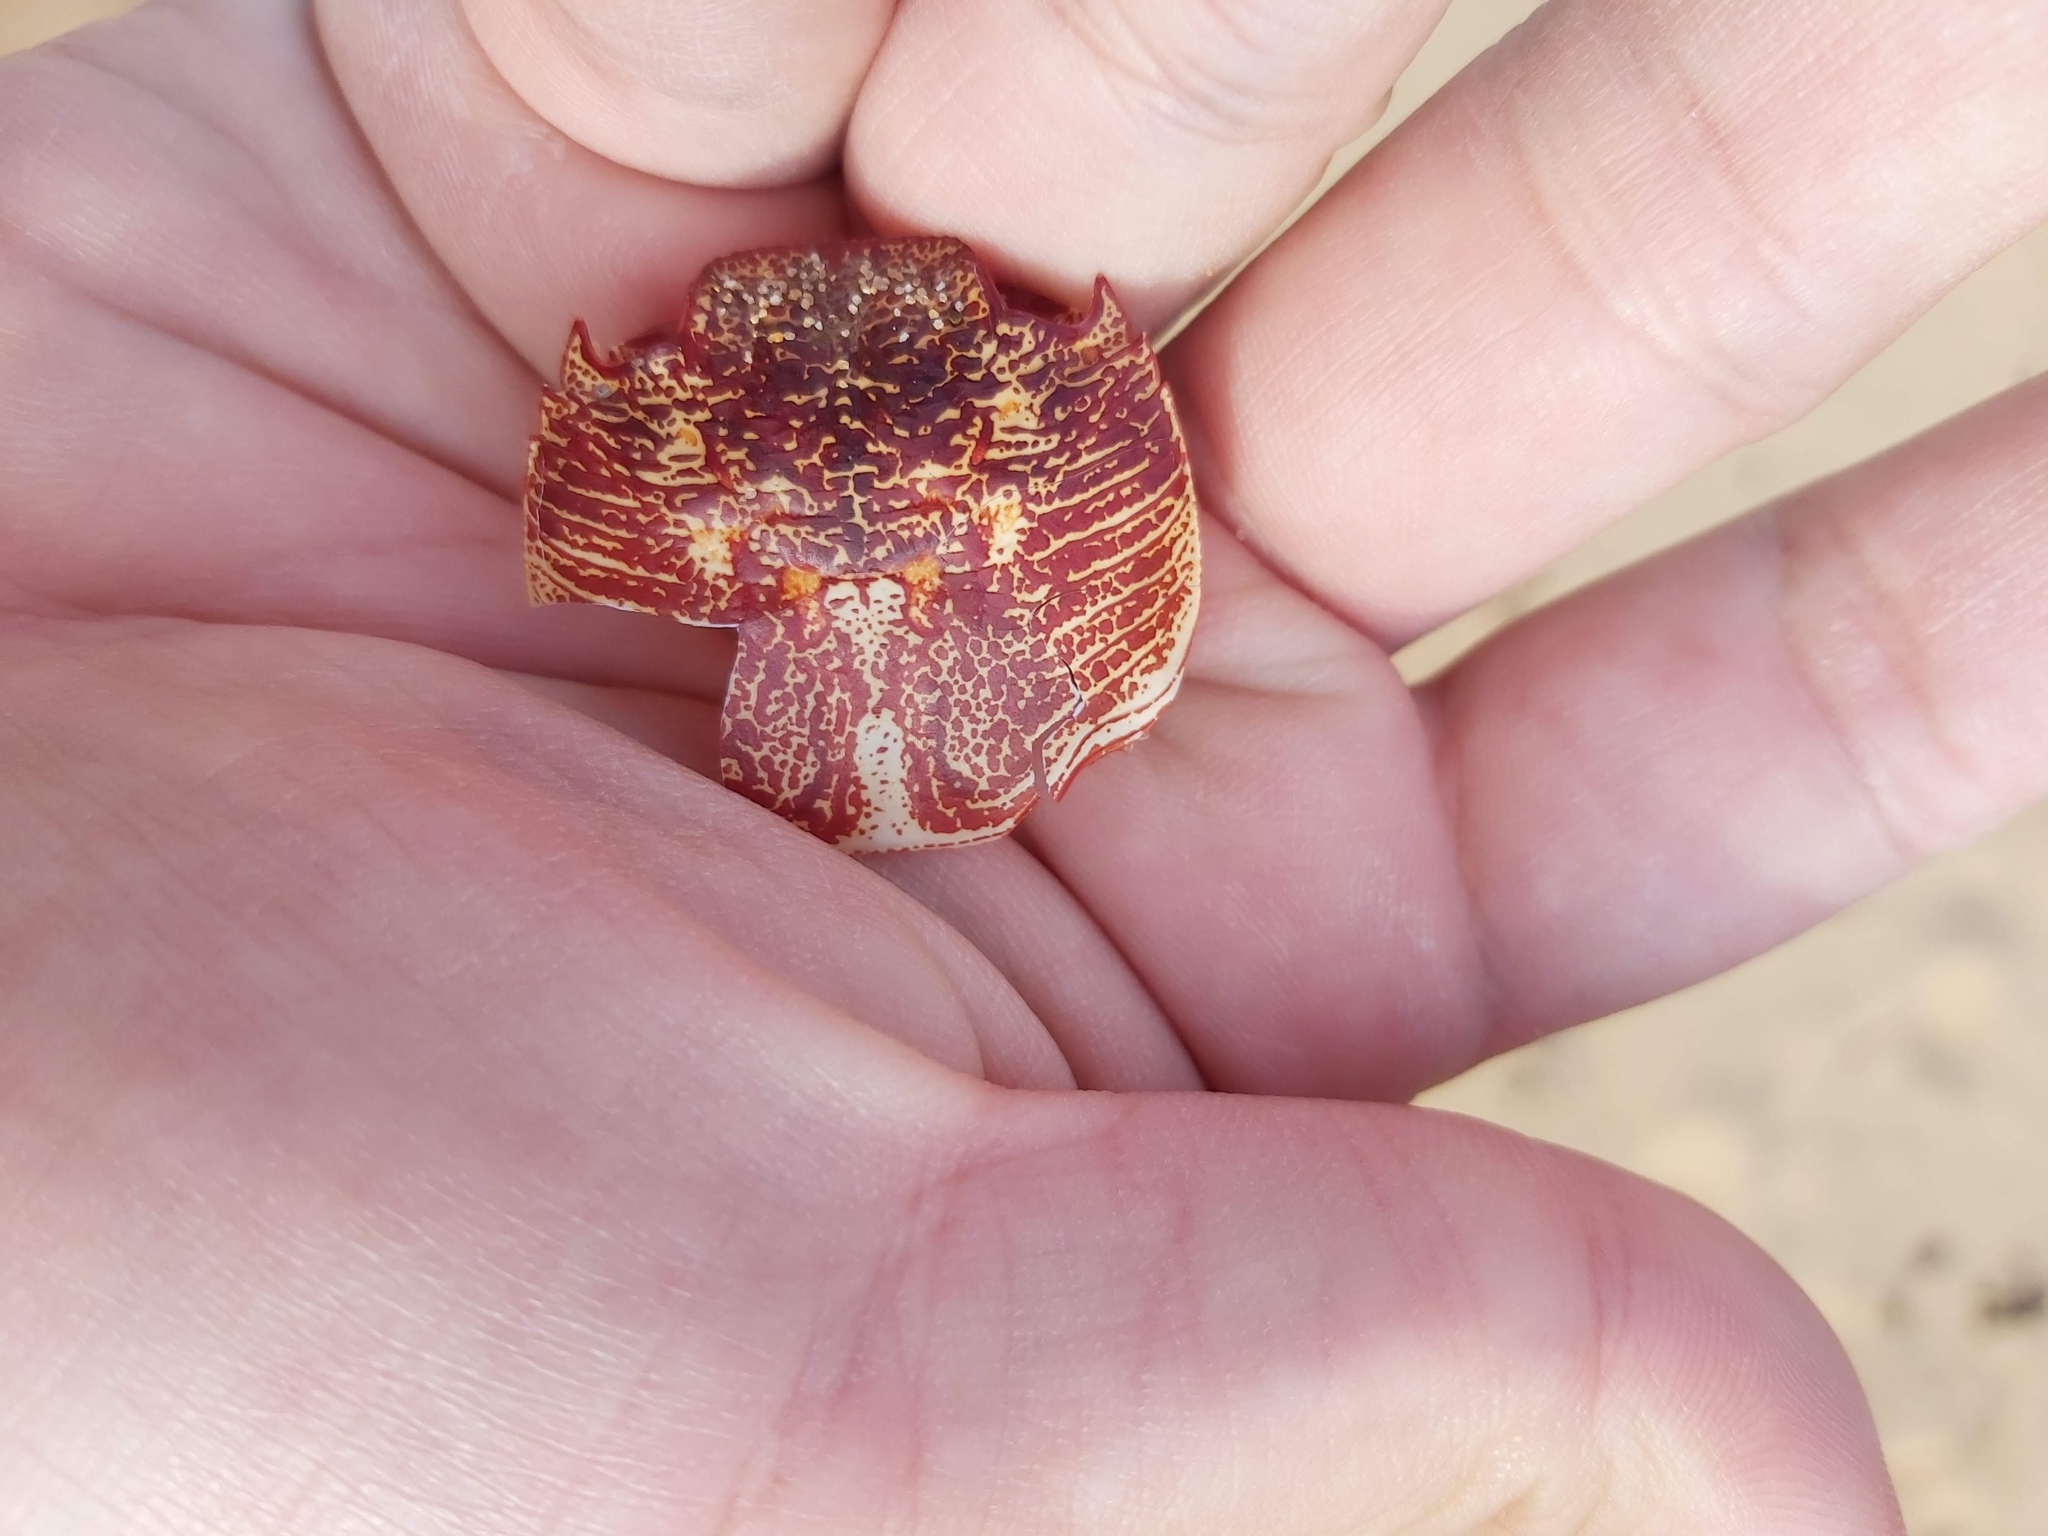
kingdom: Animalia
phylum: Arthropoda
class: Malacostraca
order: Decapoda
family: Grapsidae
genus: Leptograpsus
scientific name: Leptograpsus variegatus
